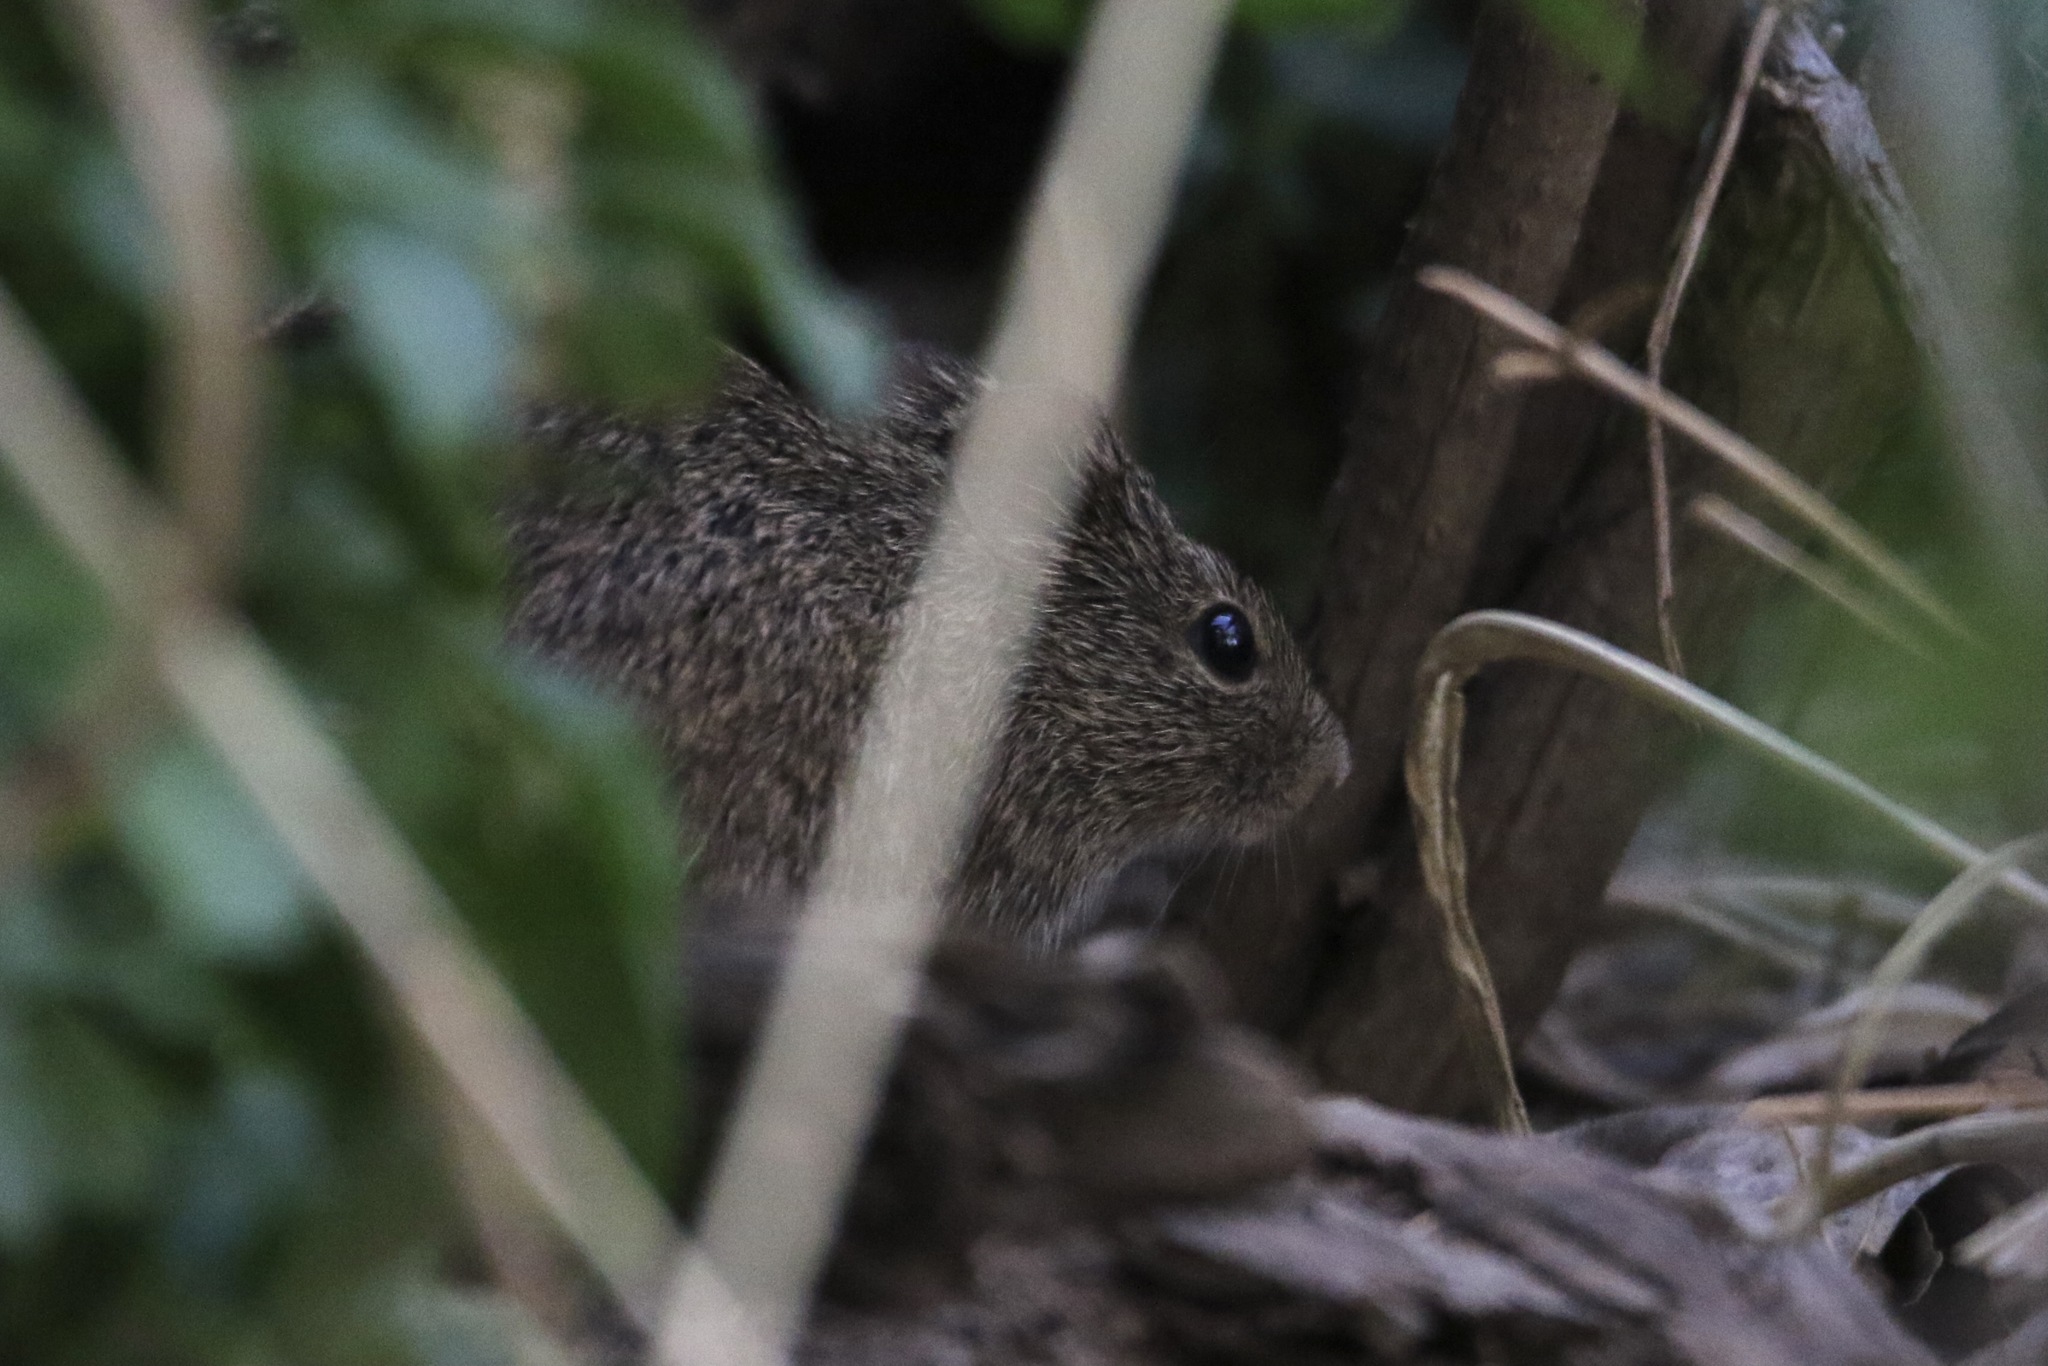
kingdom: Animalia
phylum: Chordata
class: Mammalia
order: Rodentia
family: Cricetidae
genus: Sigmodon
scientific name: Sigmodon arizonae
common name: Arizona cotton rat
